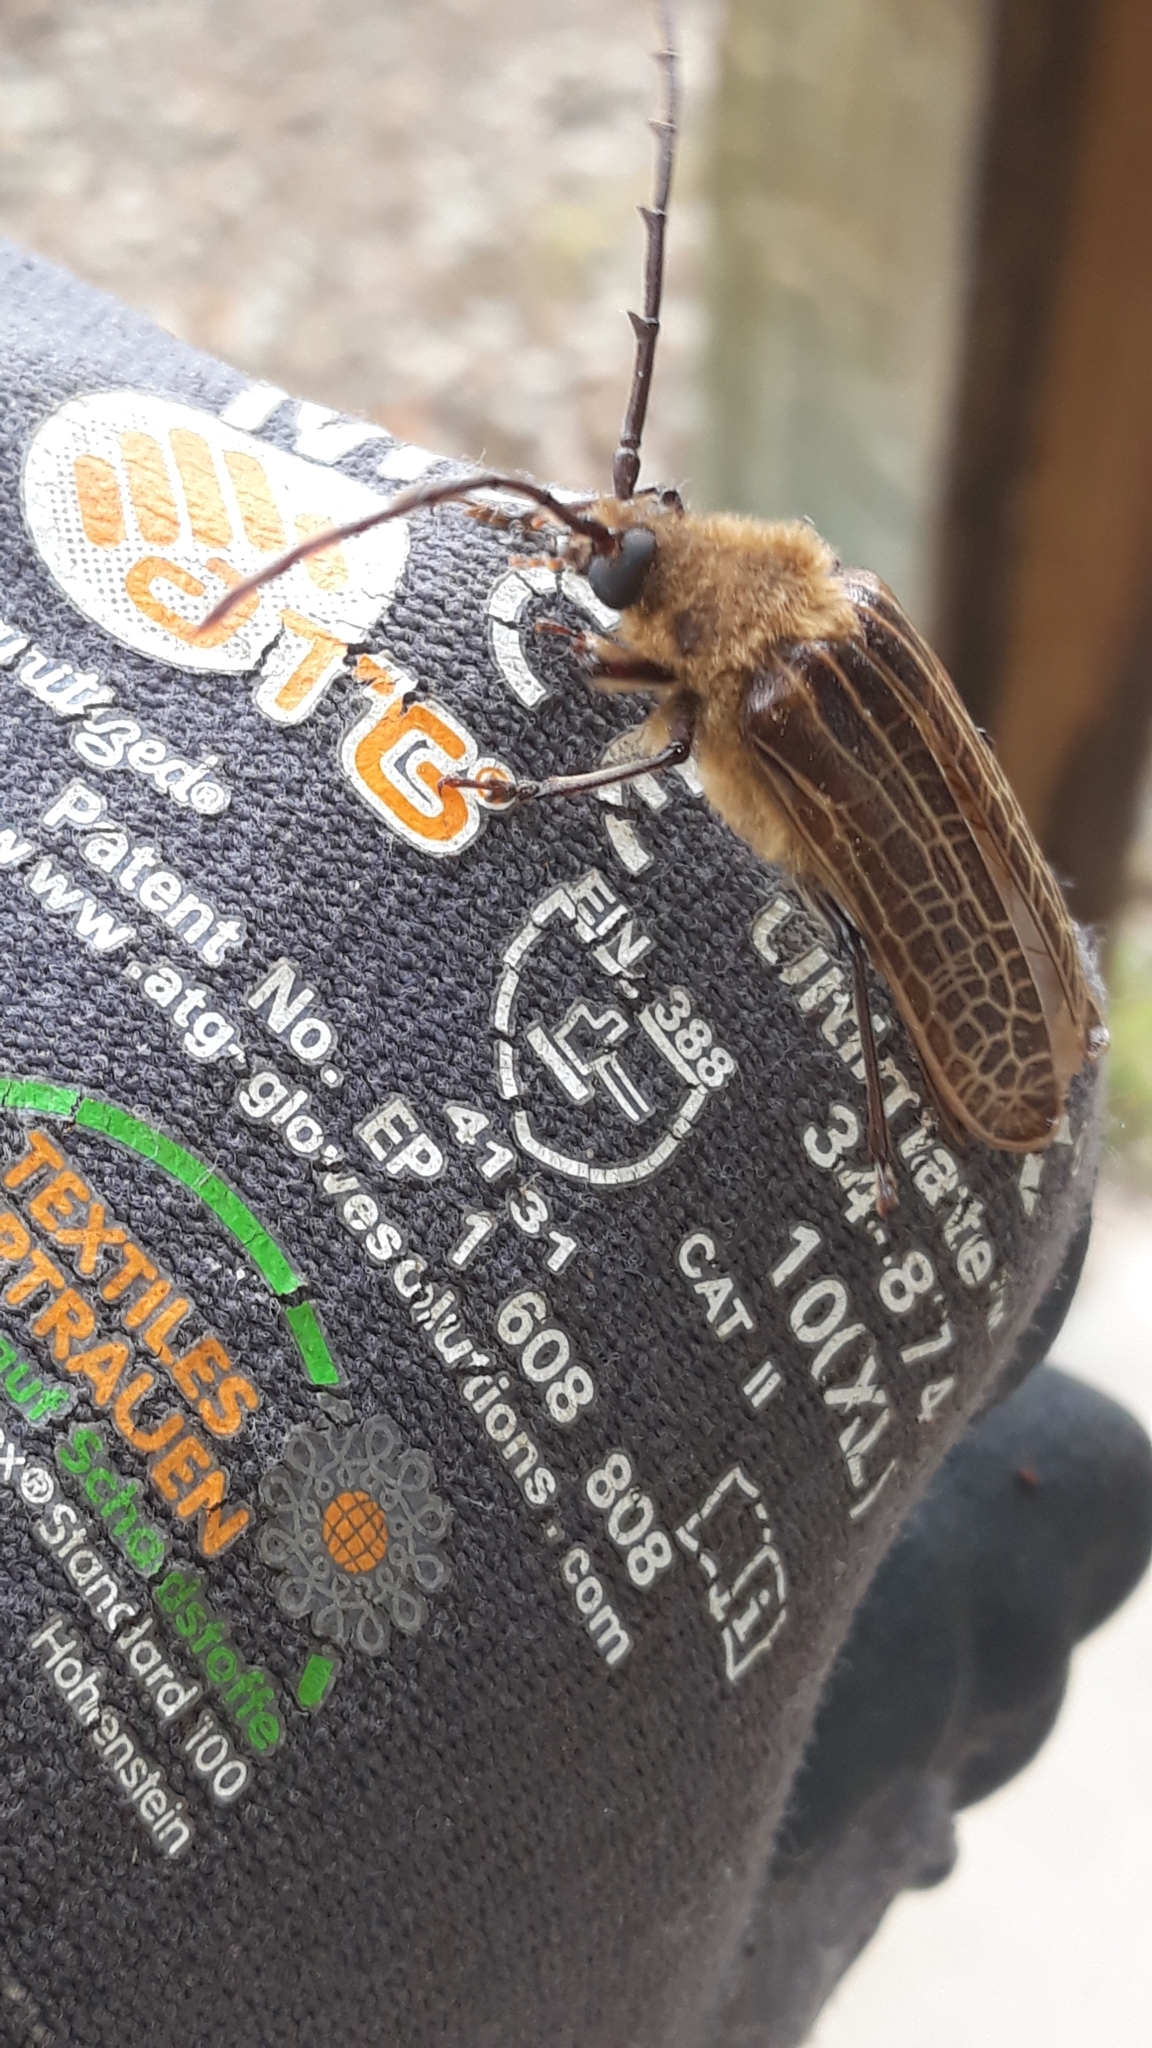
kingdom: Animalia
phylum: Arthropoda
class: Insecta
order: Coleoptera
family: Cerambycidae
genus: Prionoplus
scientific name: Prionoplus reticularis
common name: Huhu beetle
